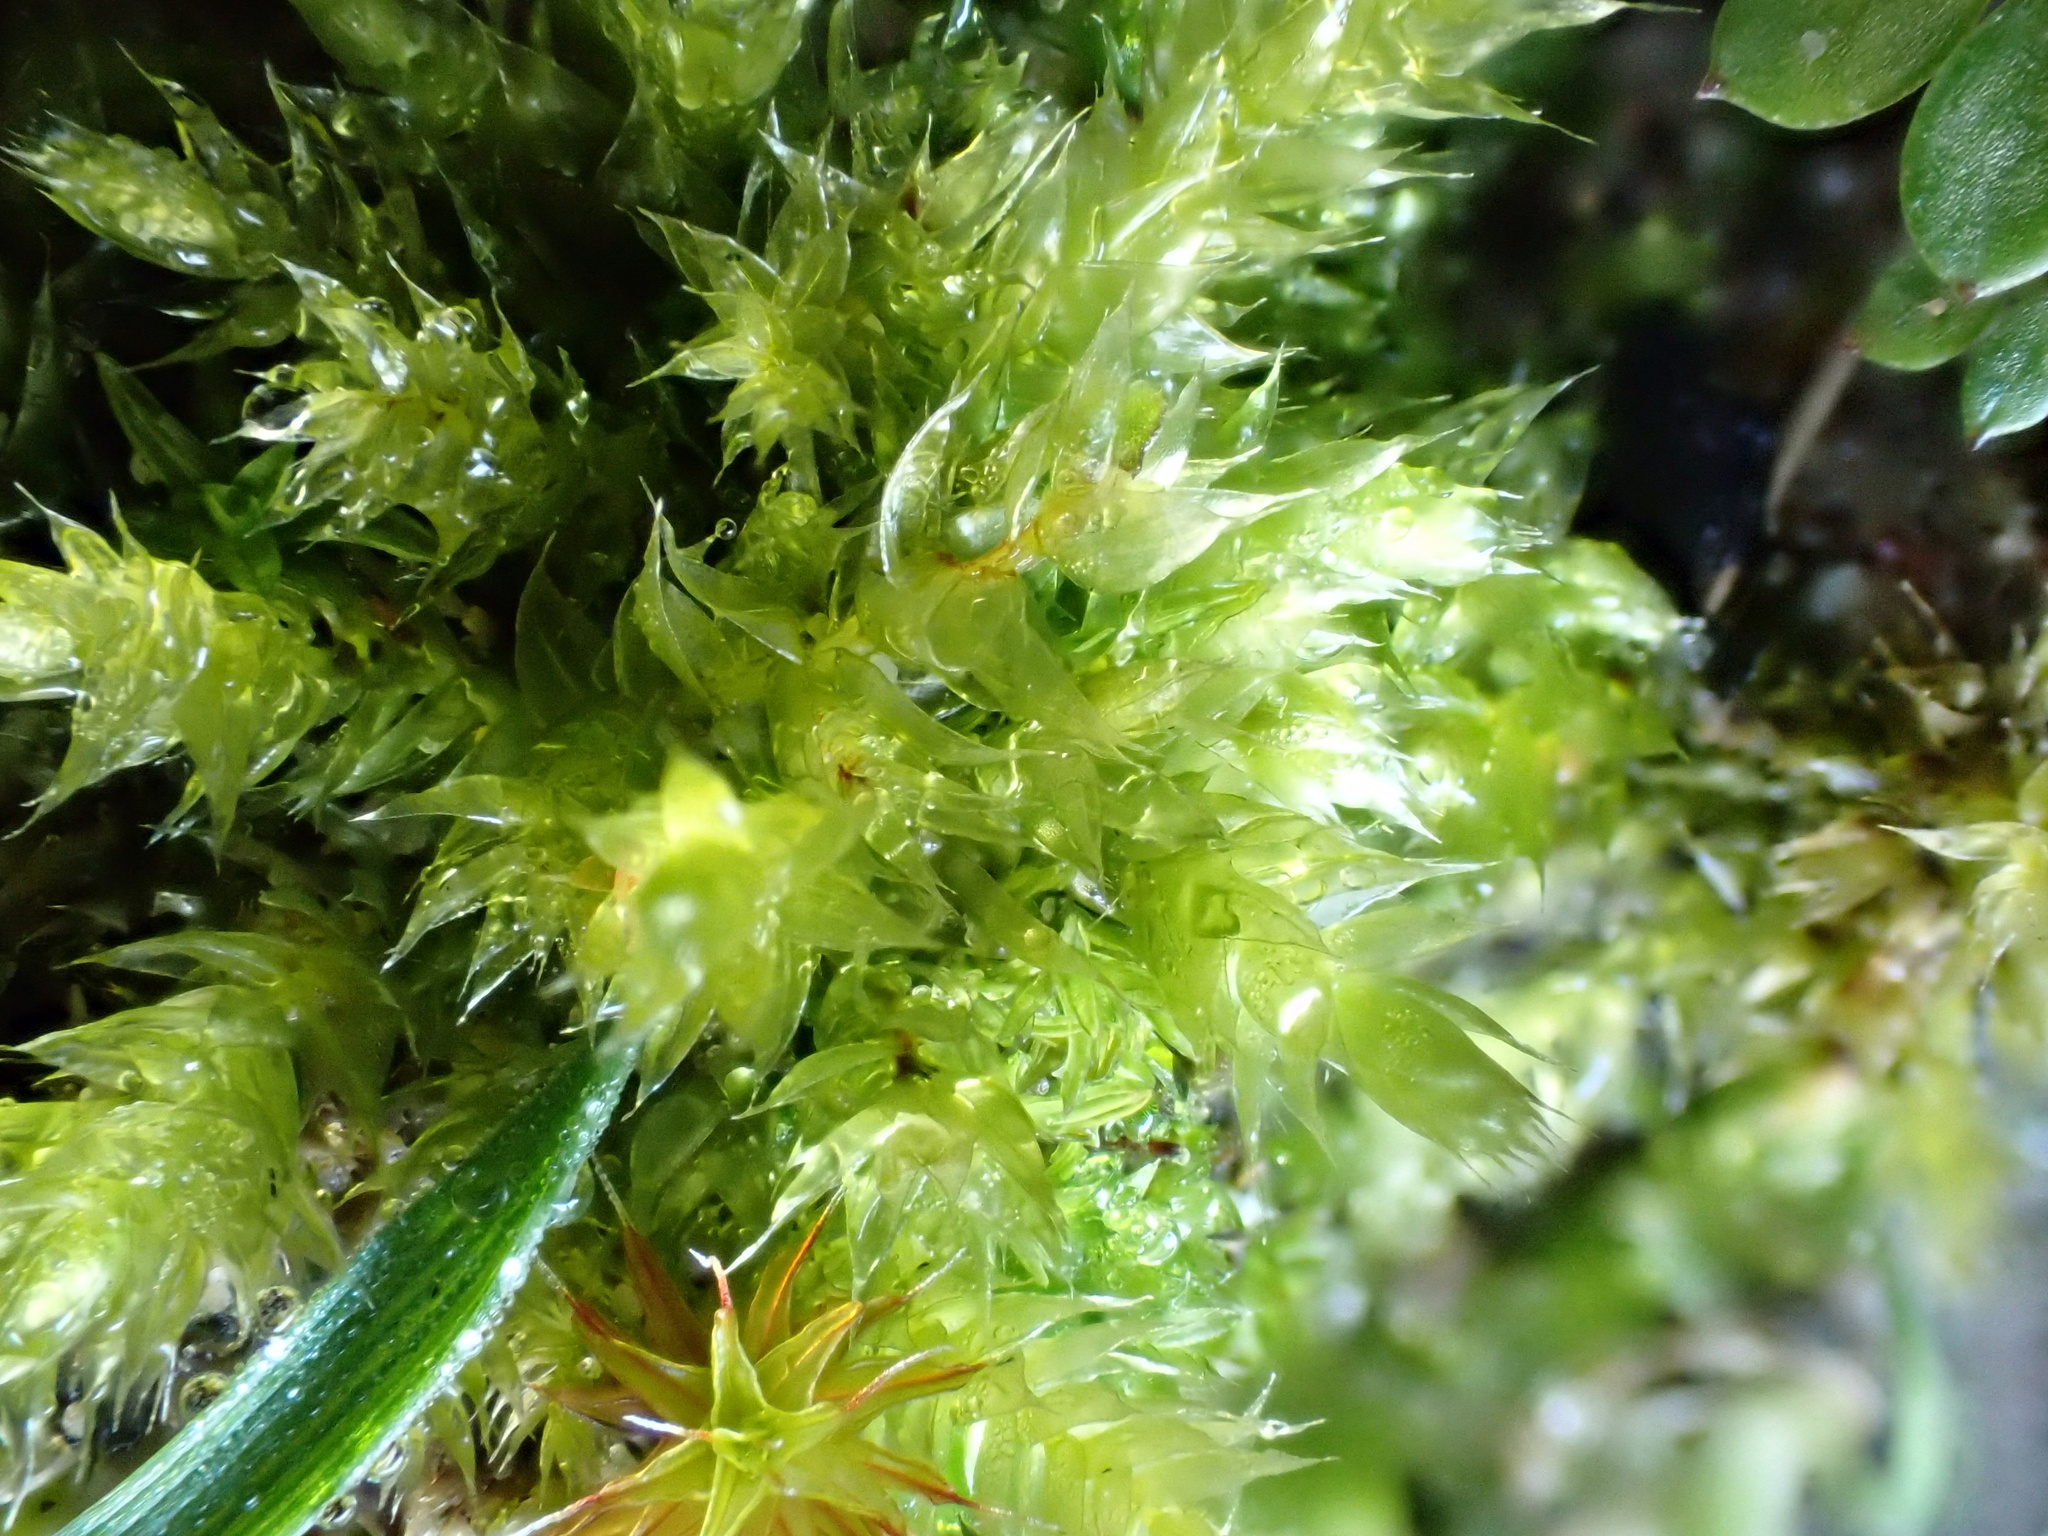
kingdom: Plantae
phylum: Bryophyta
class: Bryopsida
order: Hypnales
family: Brachytheciaceae
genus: Brachythecium
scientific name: Brachythecium rutabulum
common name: Rough-stalked feather-moss
